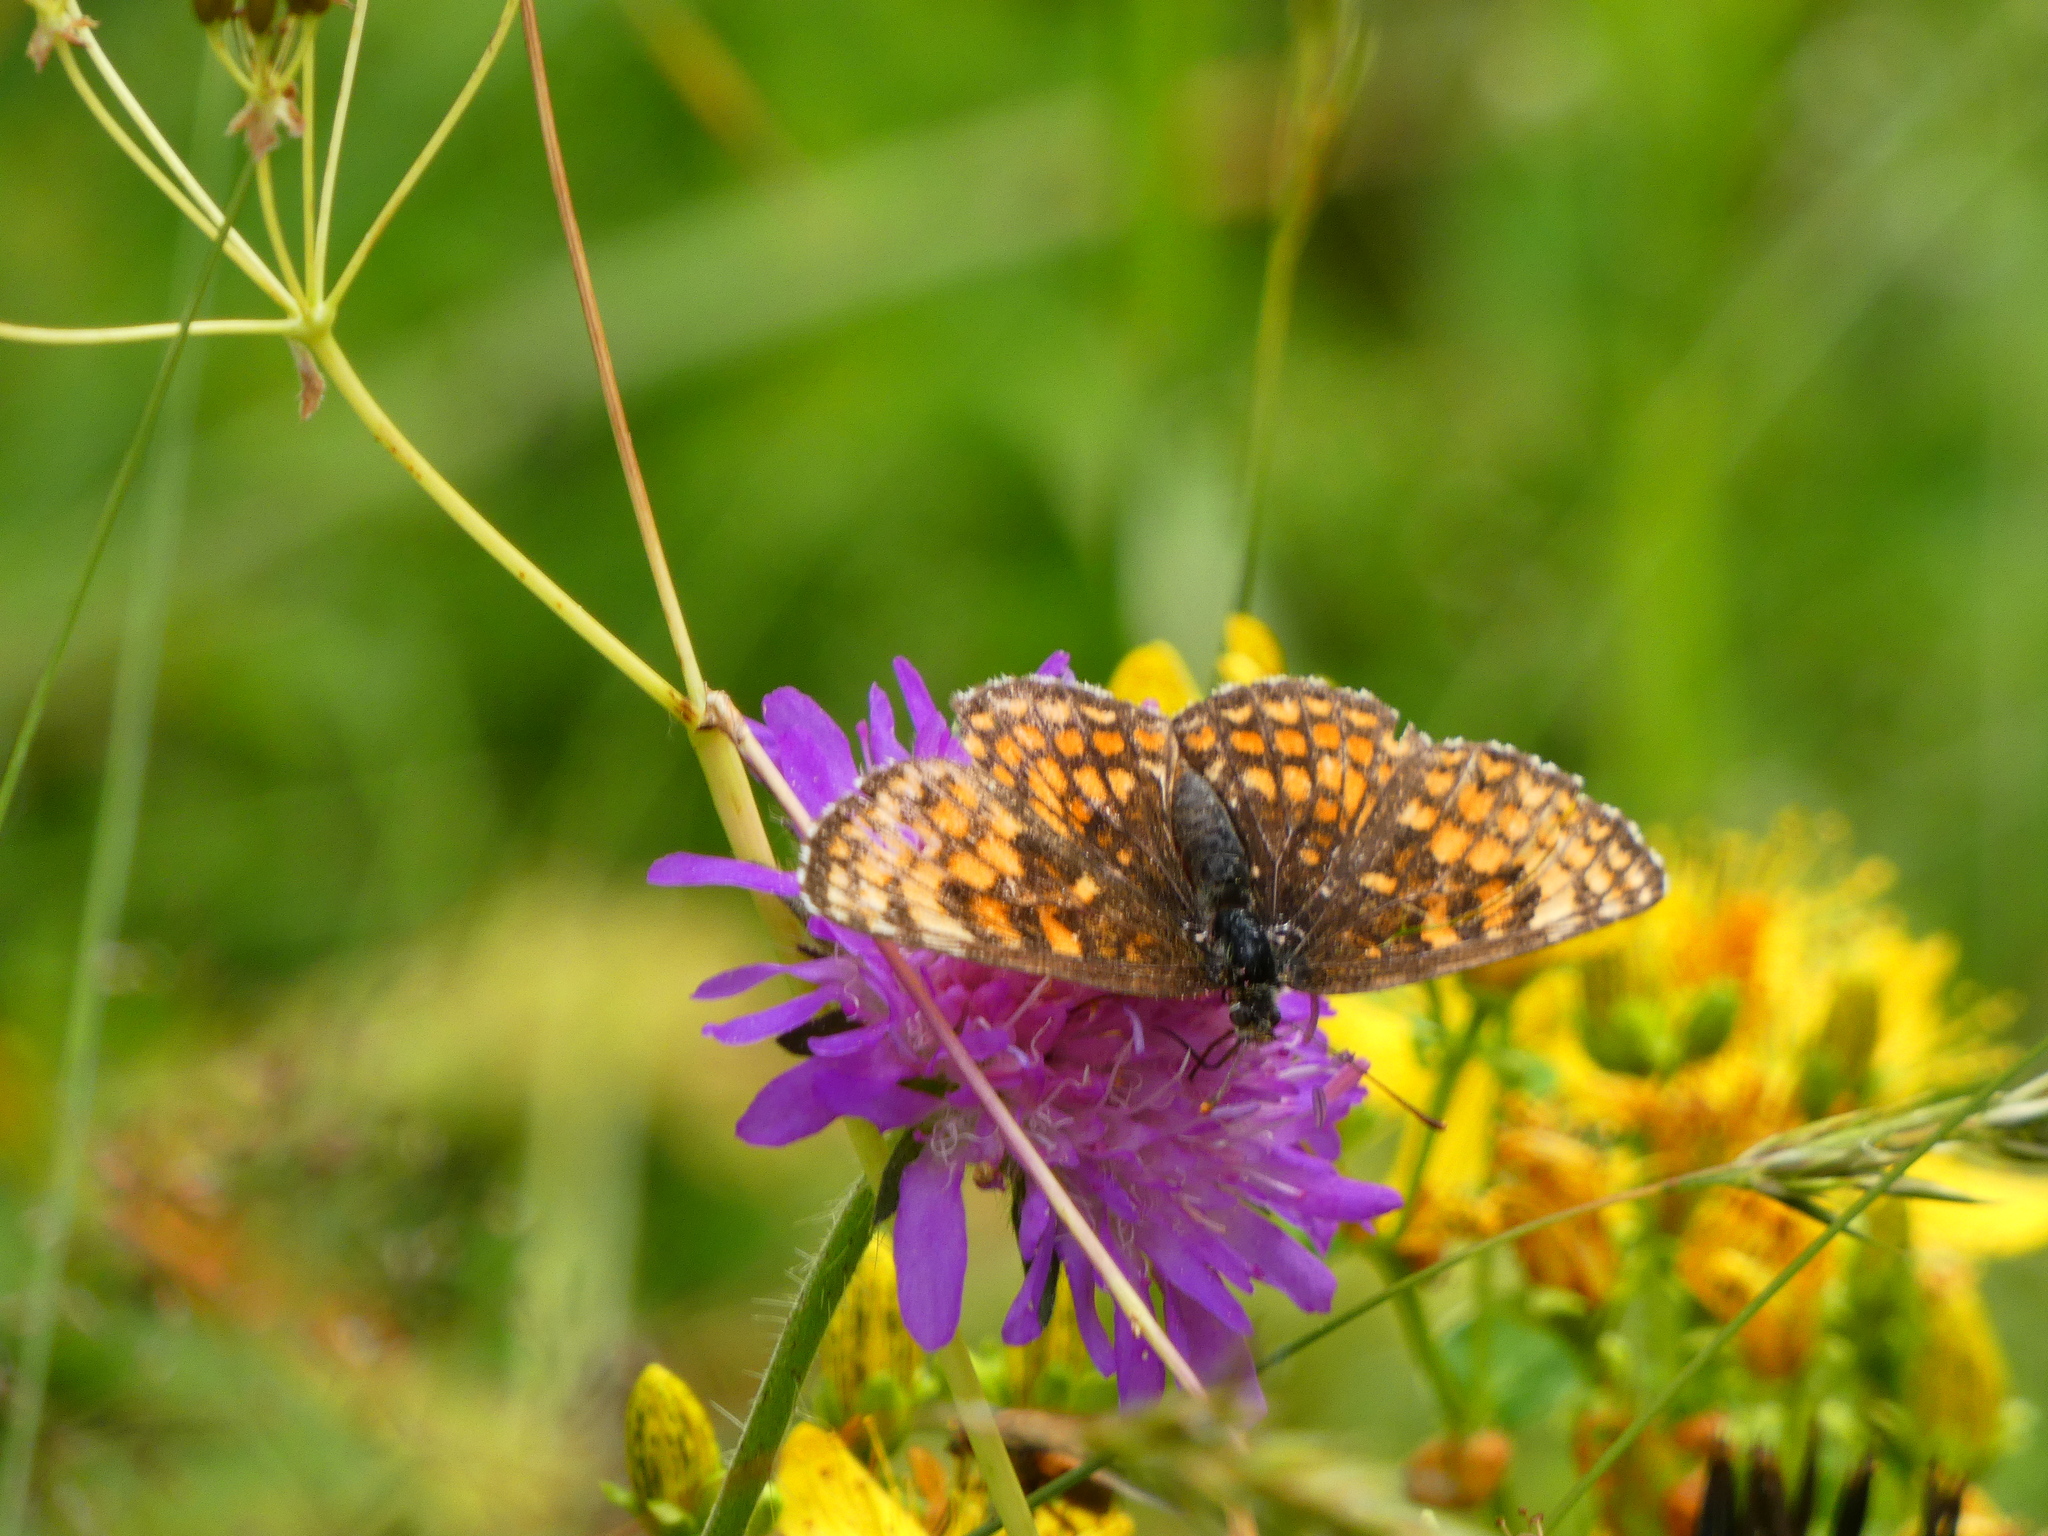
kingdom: Animalia
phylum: Arthropoda
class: Insecta
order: Lepidoptera
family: Nymphalidae
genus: Melitaea
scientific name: Melitaea athalia
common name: Heath fritillary
